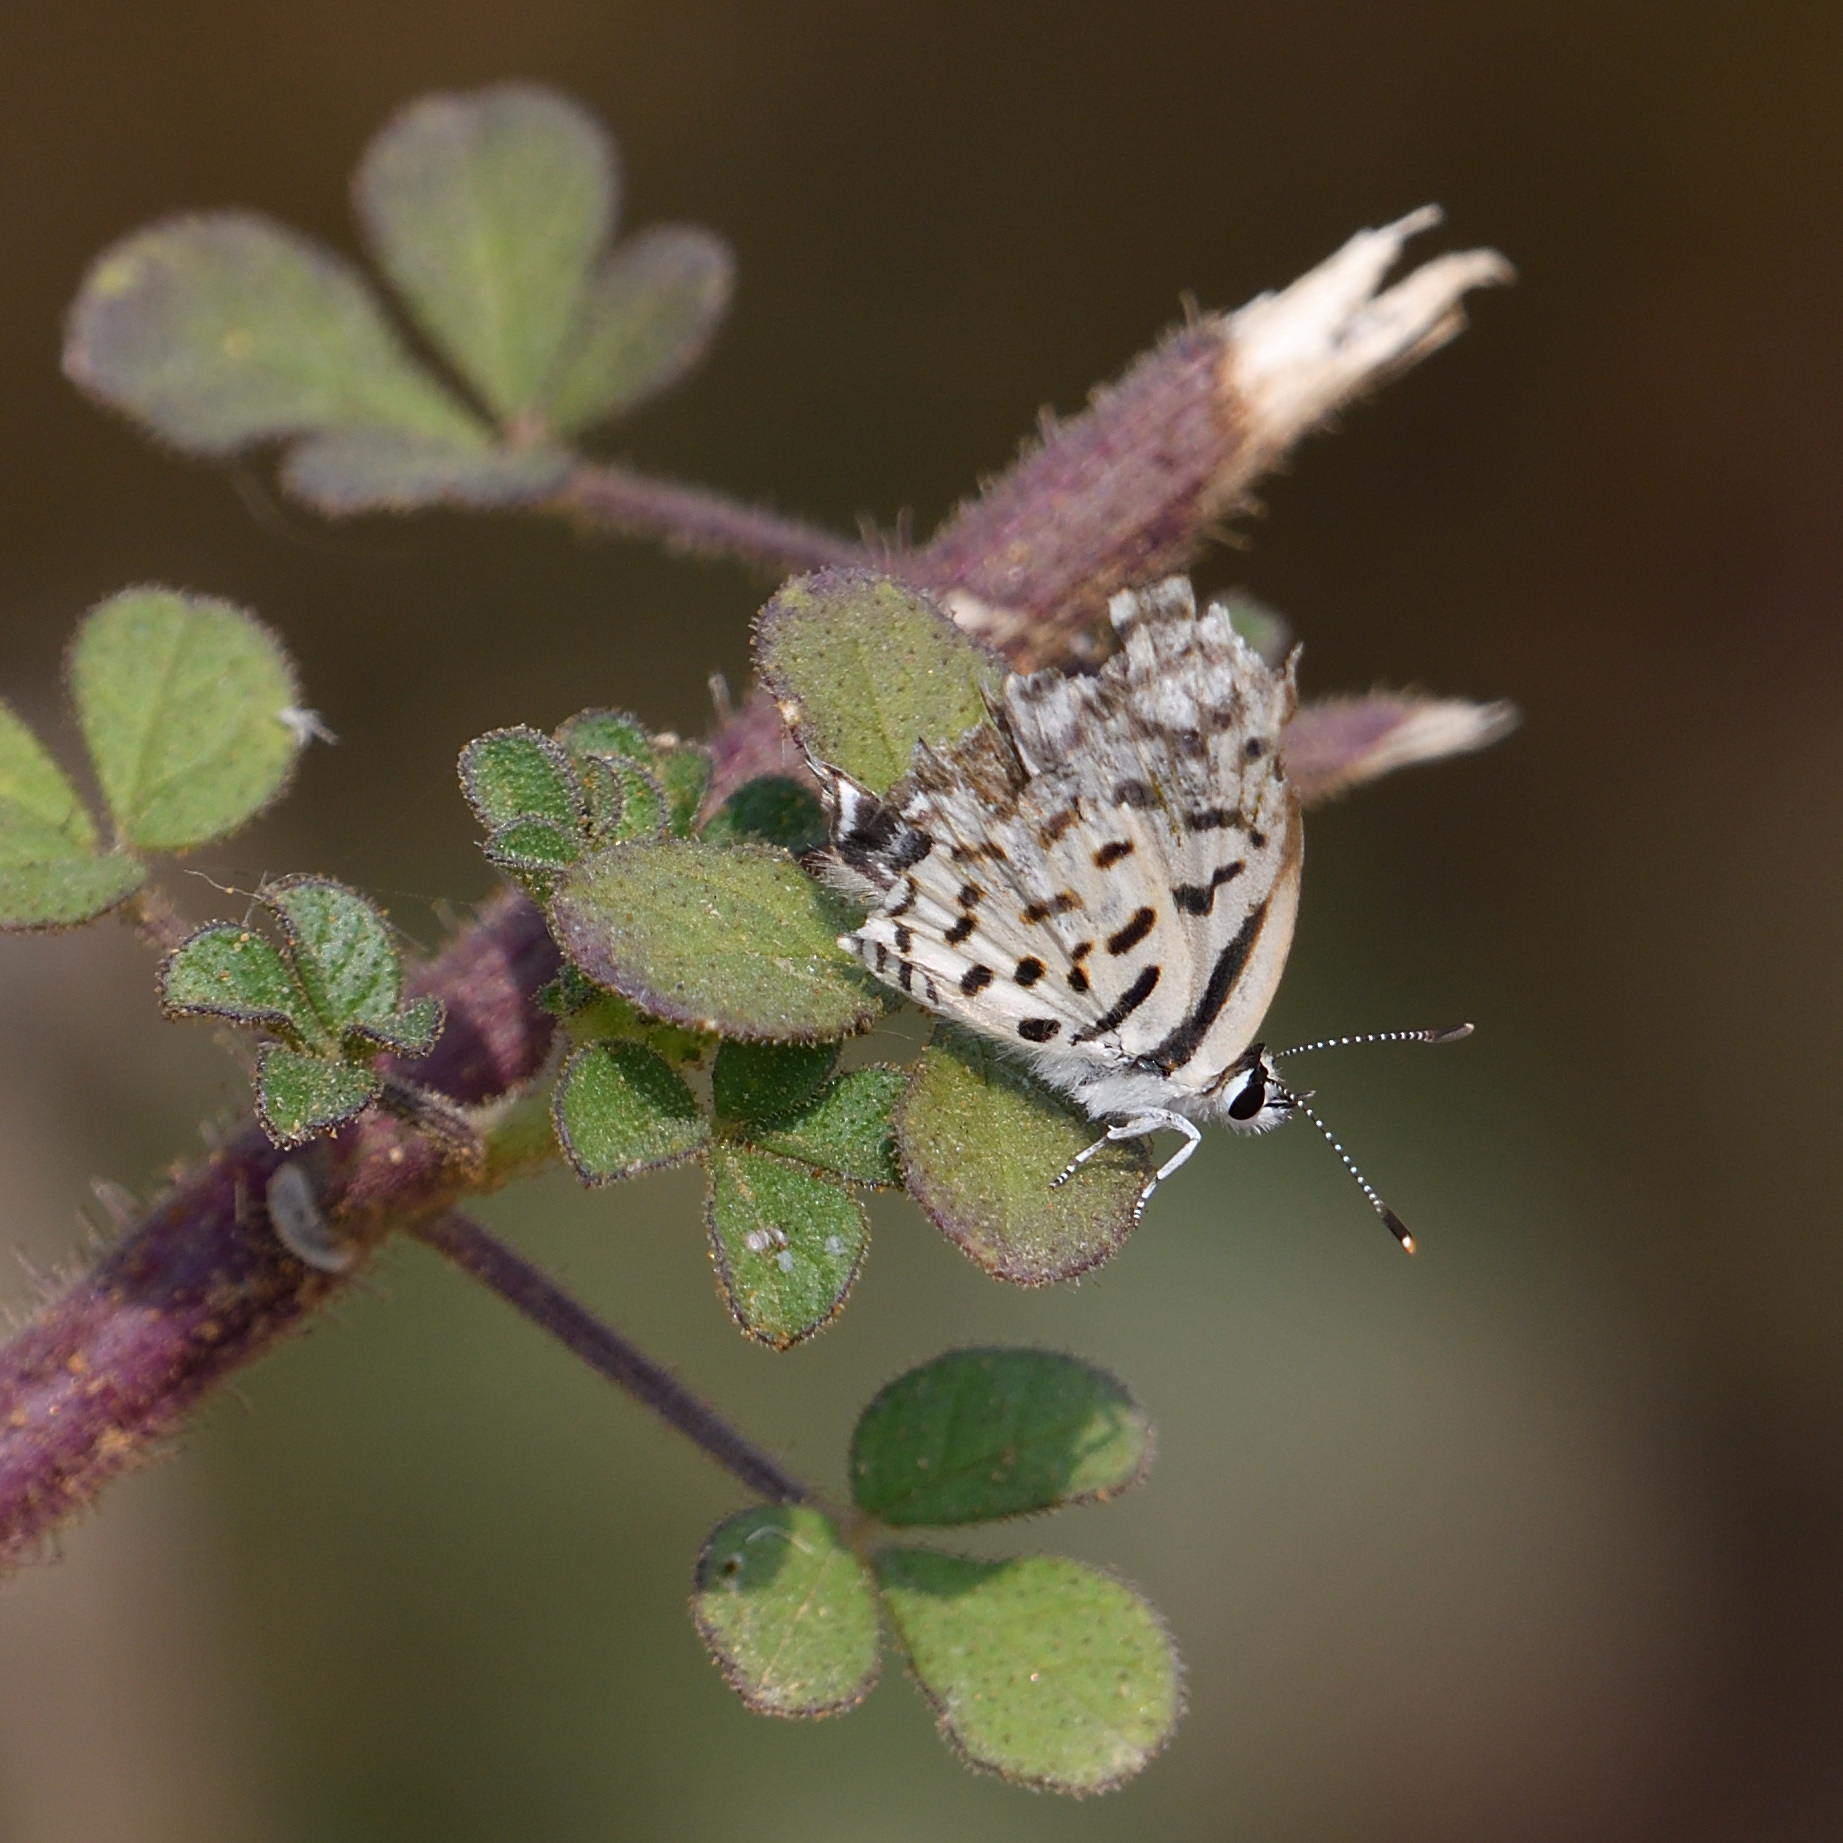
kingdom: Animalia
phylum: Arthropoda
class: Insecta
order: Lepidoptera
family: Lycaenidae
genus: Tarucus
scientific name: Tarucus nara
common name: Striped pierrot
